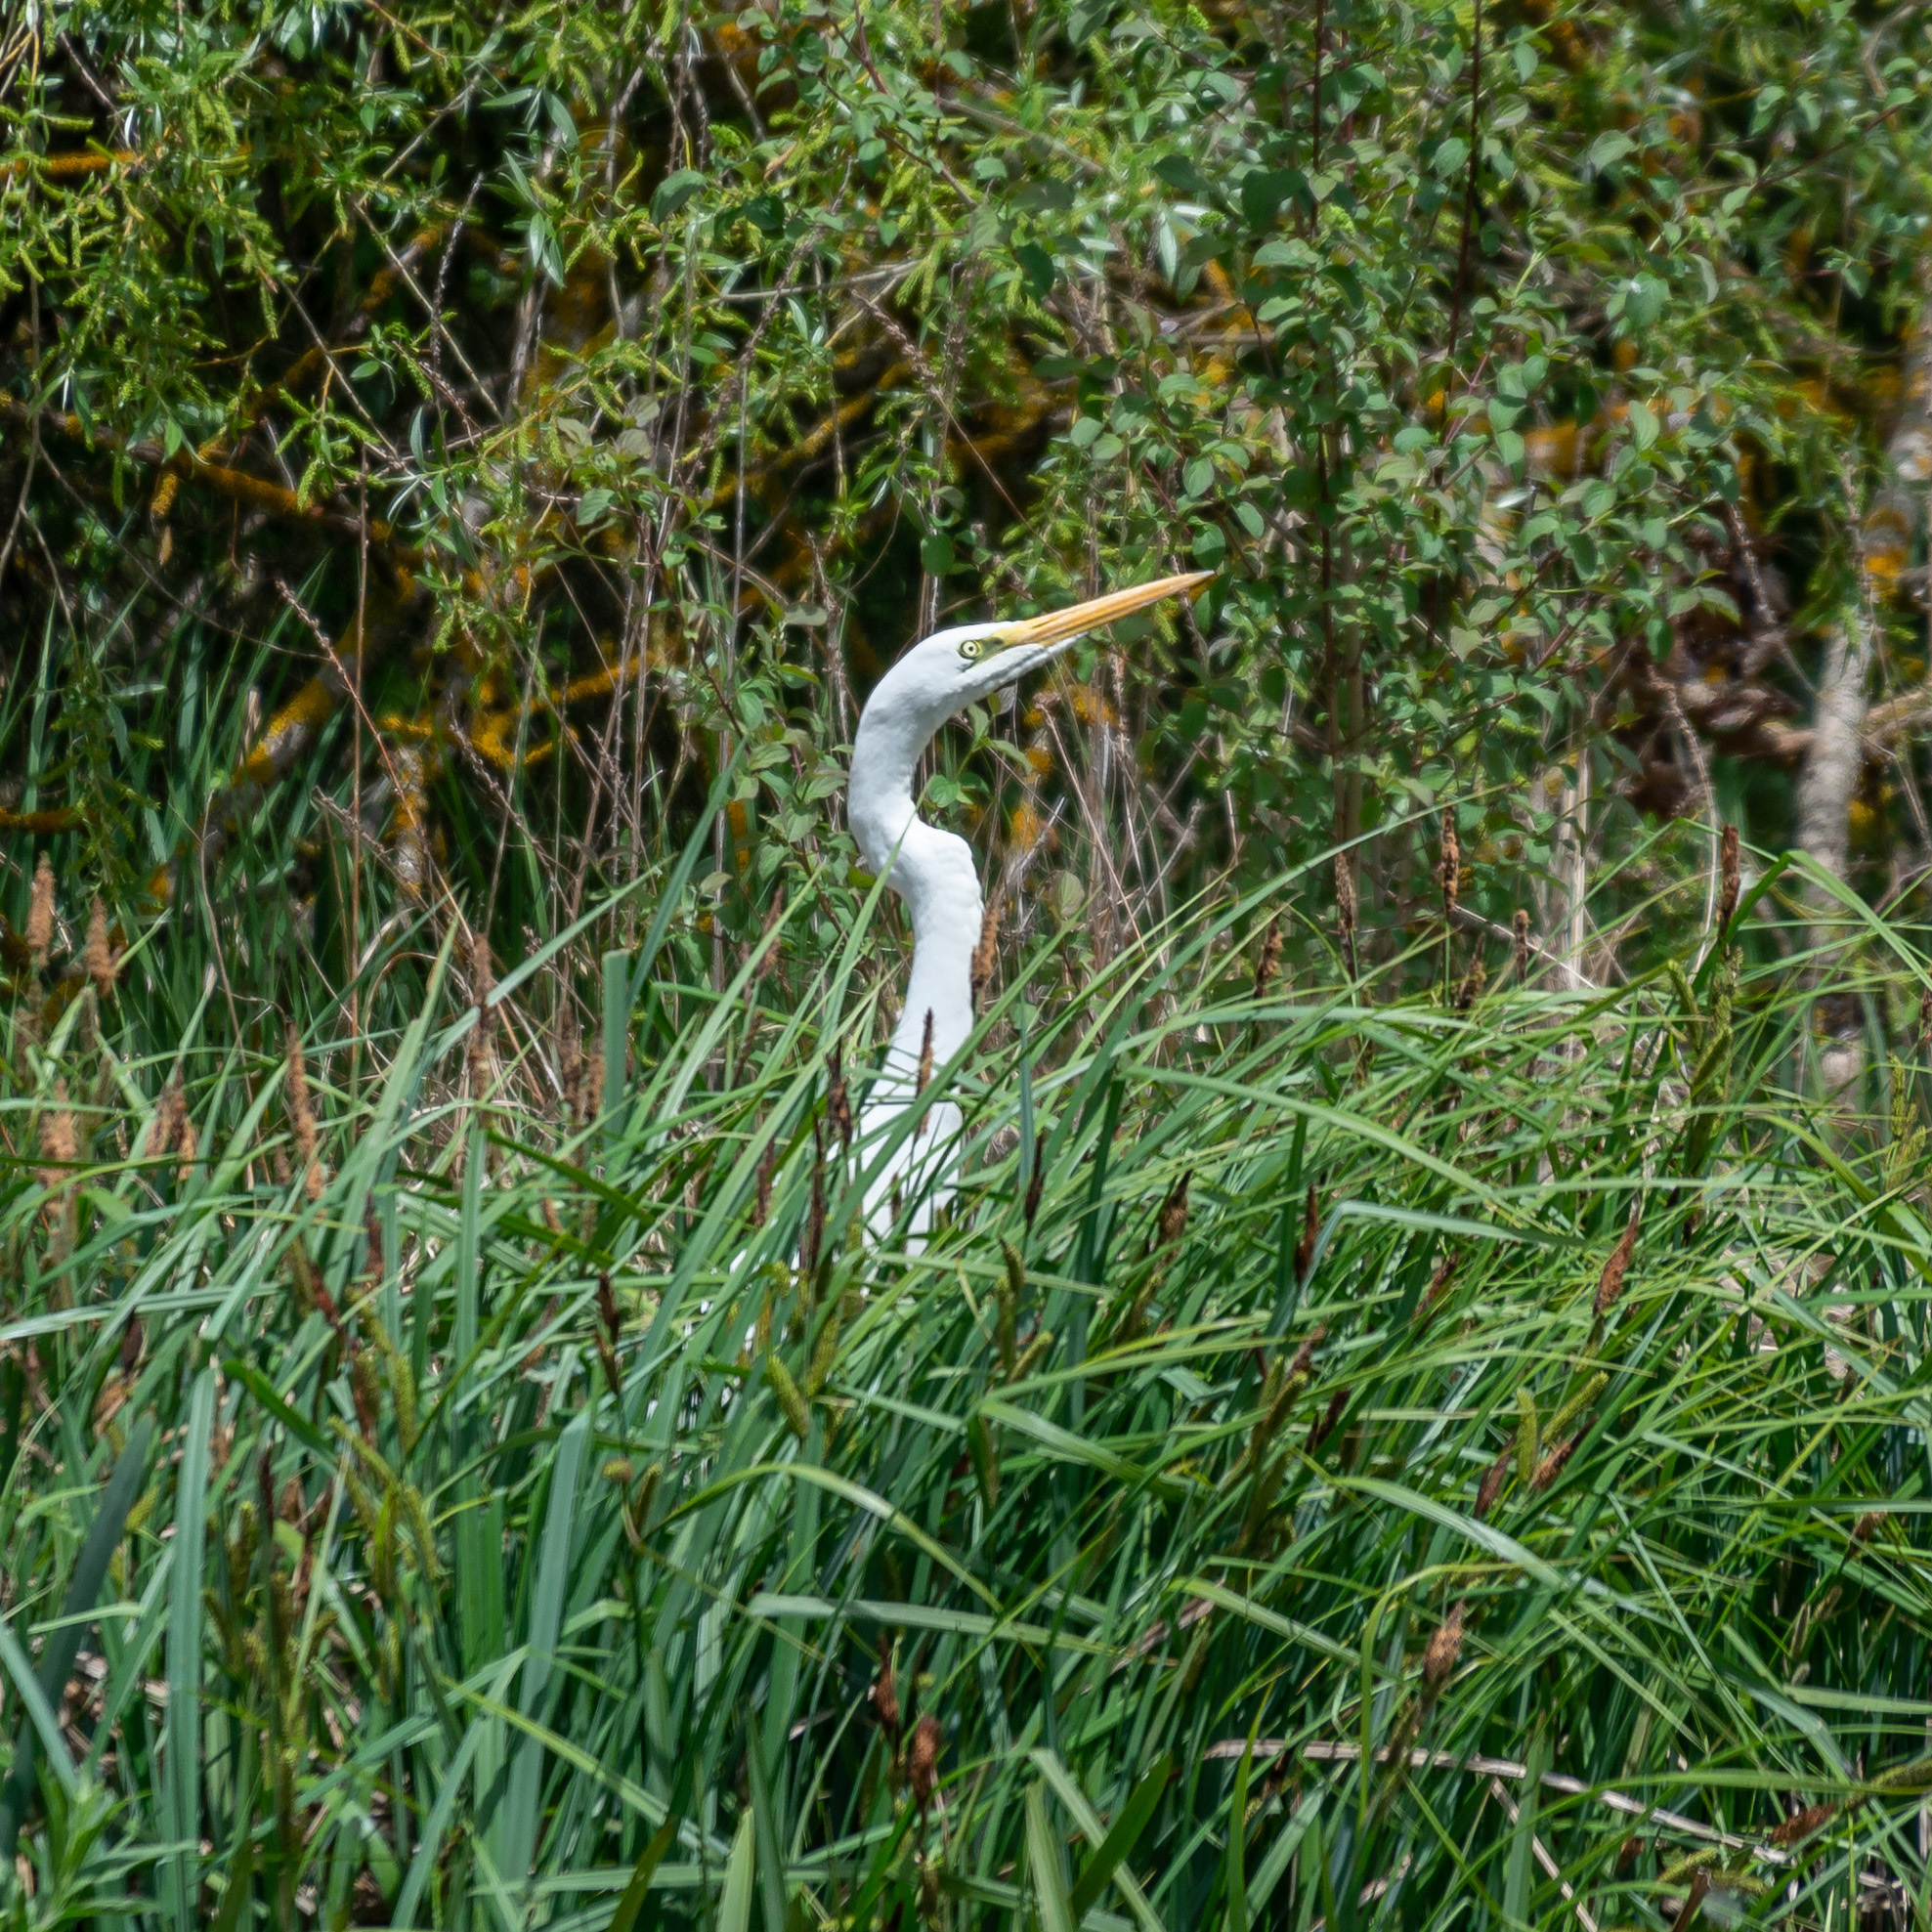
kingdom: Animalia
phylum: Chordata
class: Aves
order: Pelecaniformes
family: Ardeidae
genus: Ardea
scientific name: Ardea alba
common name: Great egret
